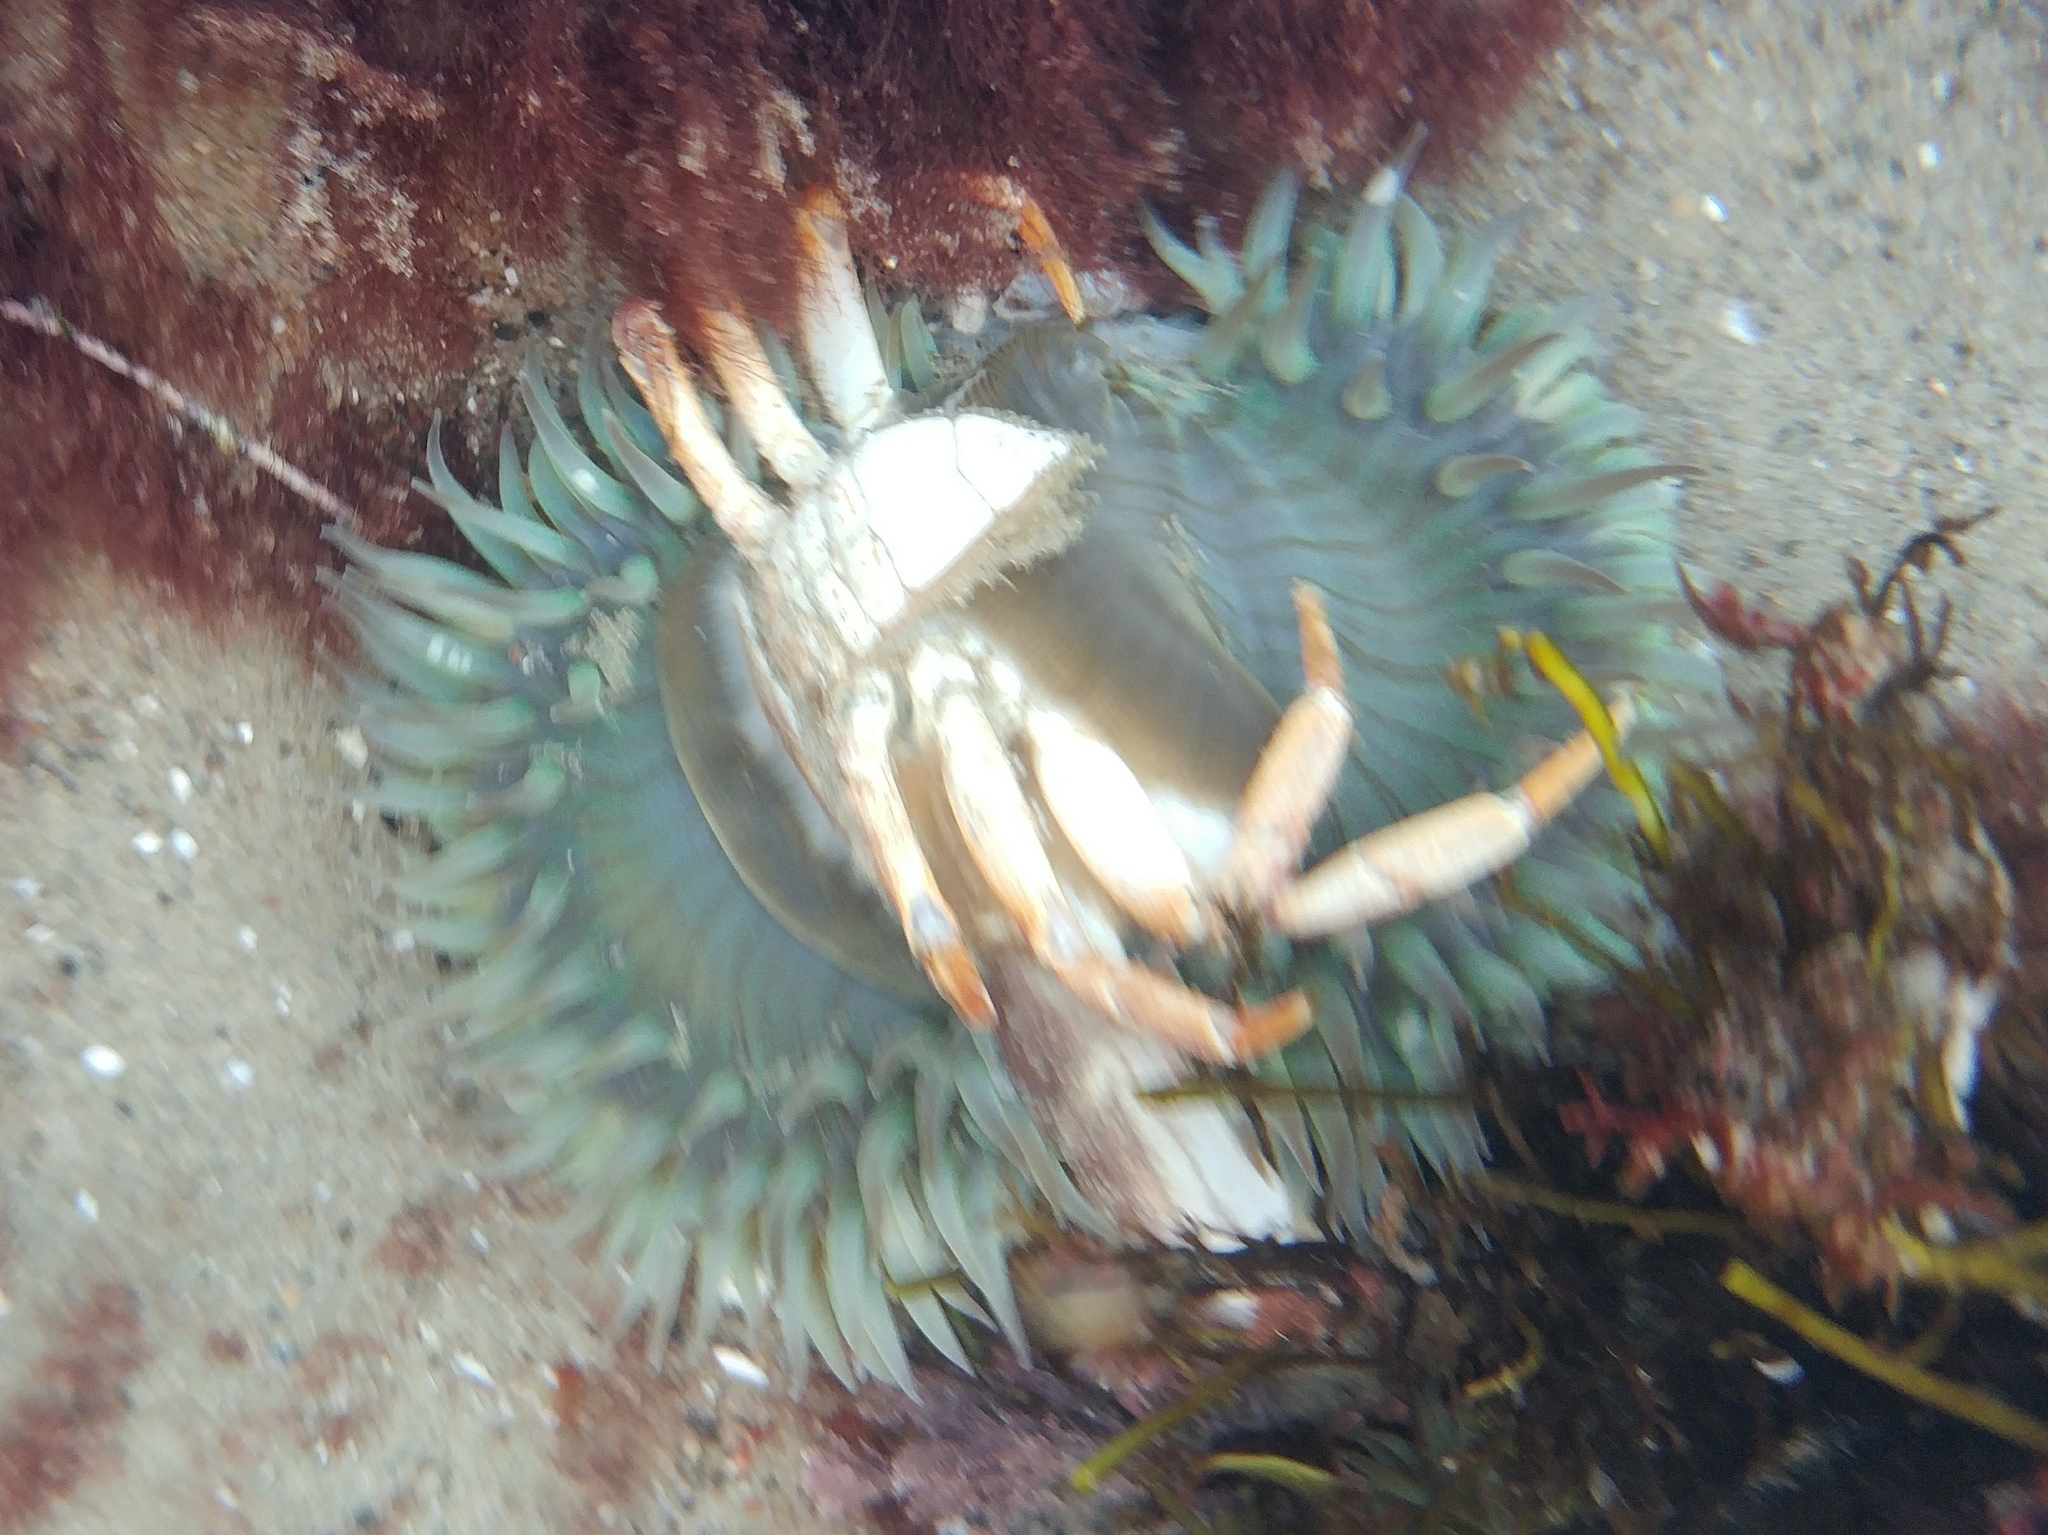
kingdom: Animalia
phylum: Cnidaria
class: Anthozoa
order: Actiniaria
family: Actiniidae
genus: Anthopleura
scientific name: Anthopleura sola
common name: Sun anemone
